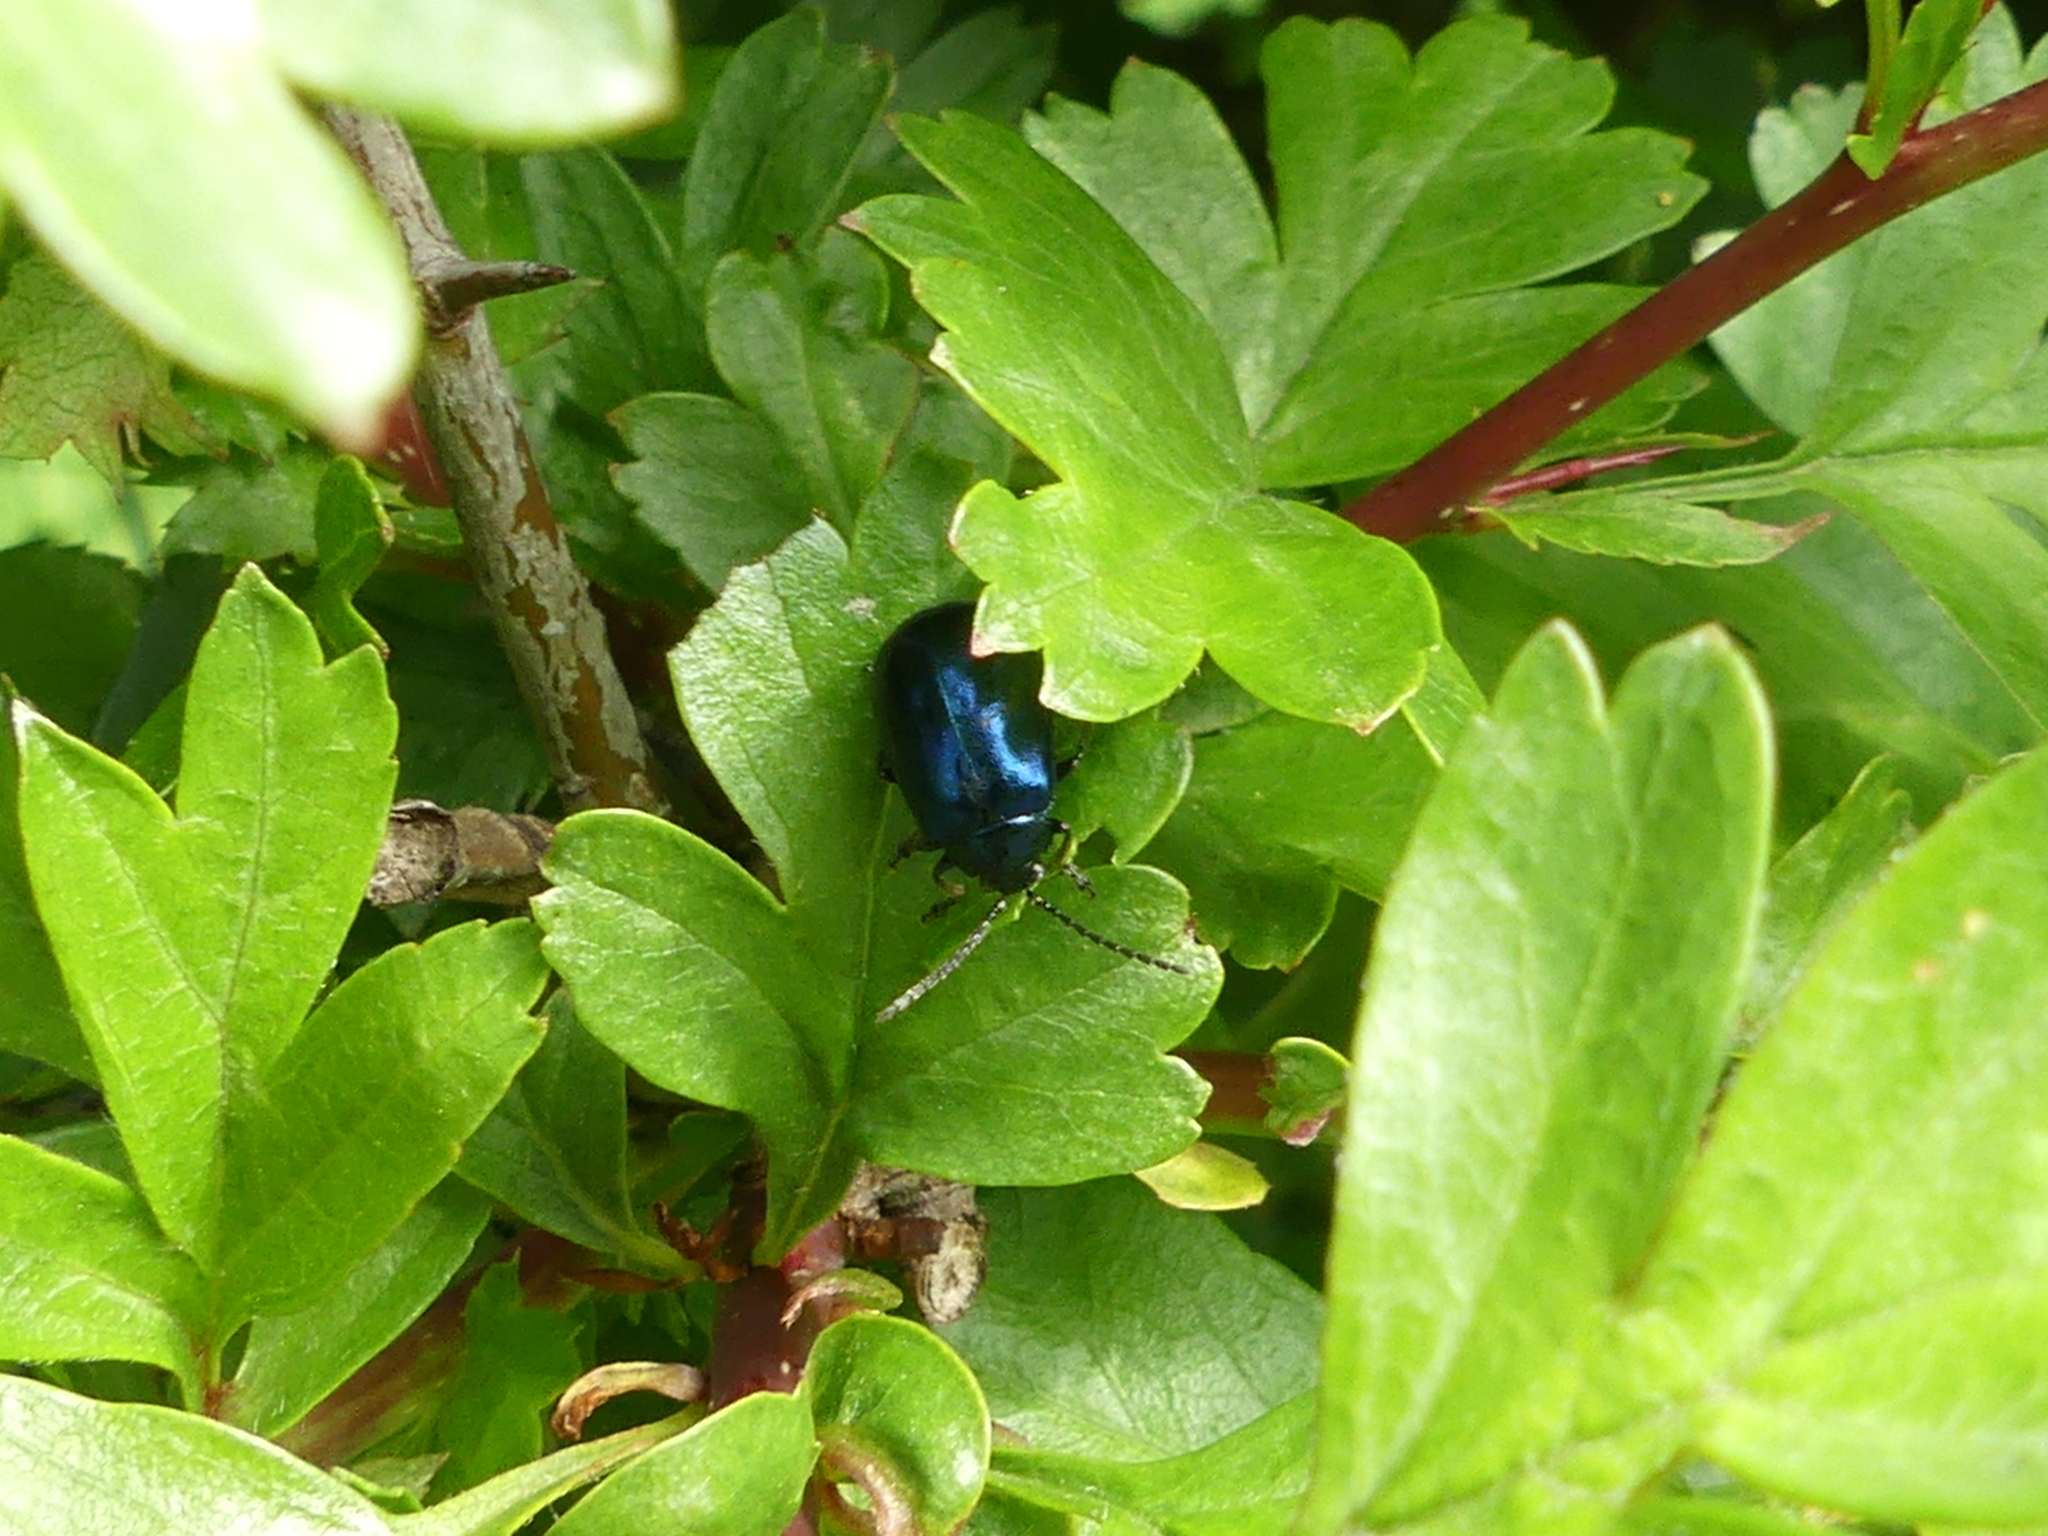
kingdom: Animalia
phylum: Arthropoda
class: Insecta
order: Coleoptera
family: Chrysomelidae
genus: Agelastica
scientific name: Agelastica alni
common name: Alder leaf beetle
